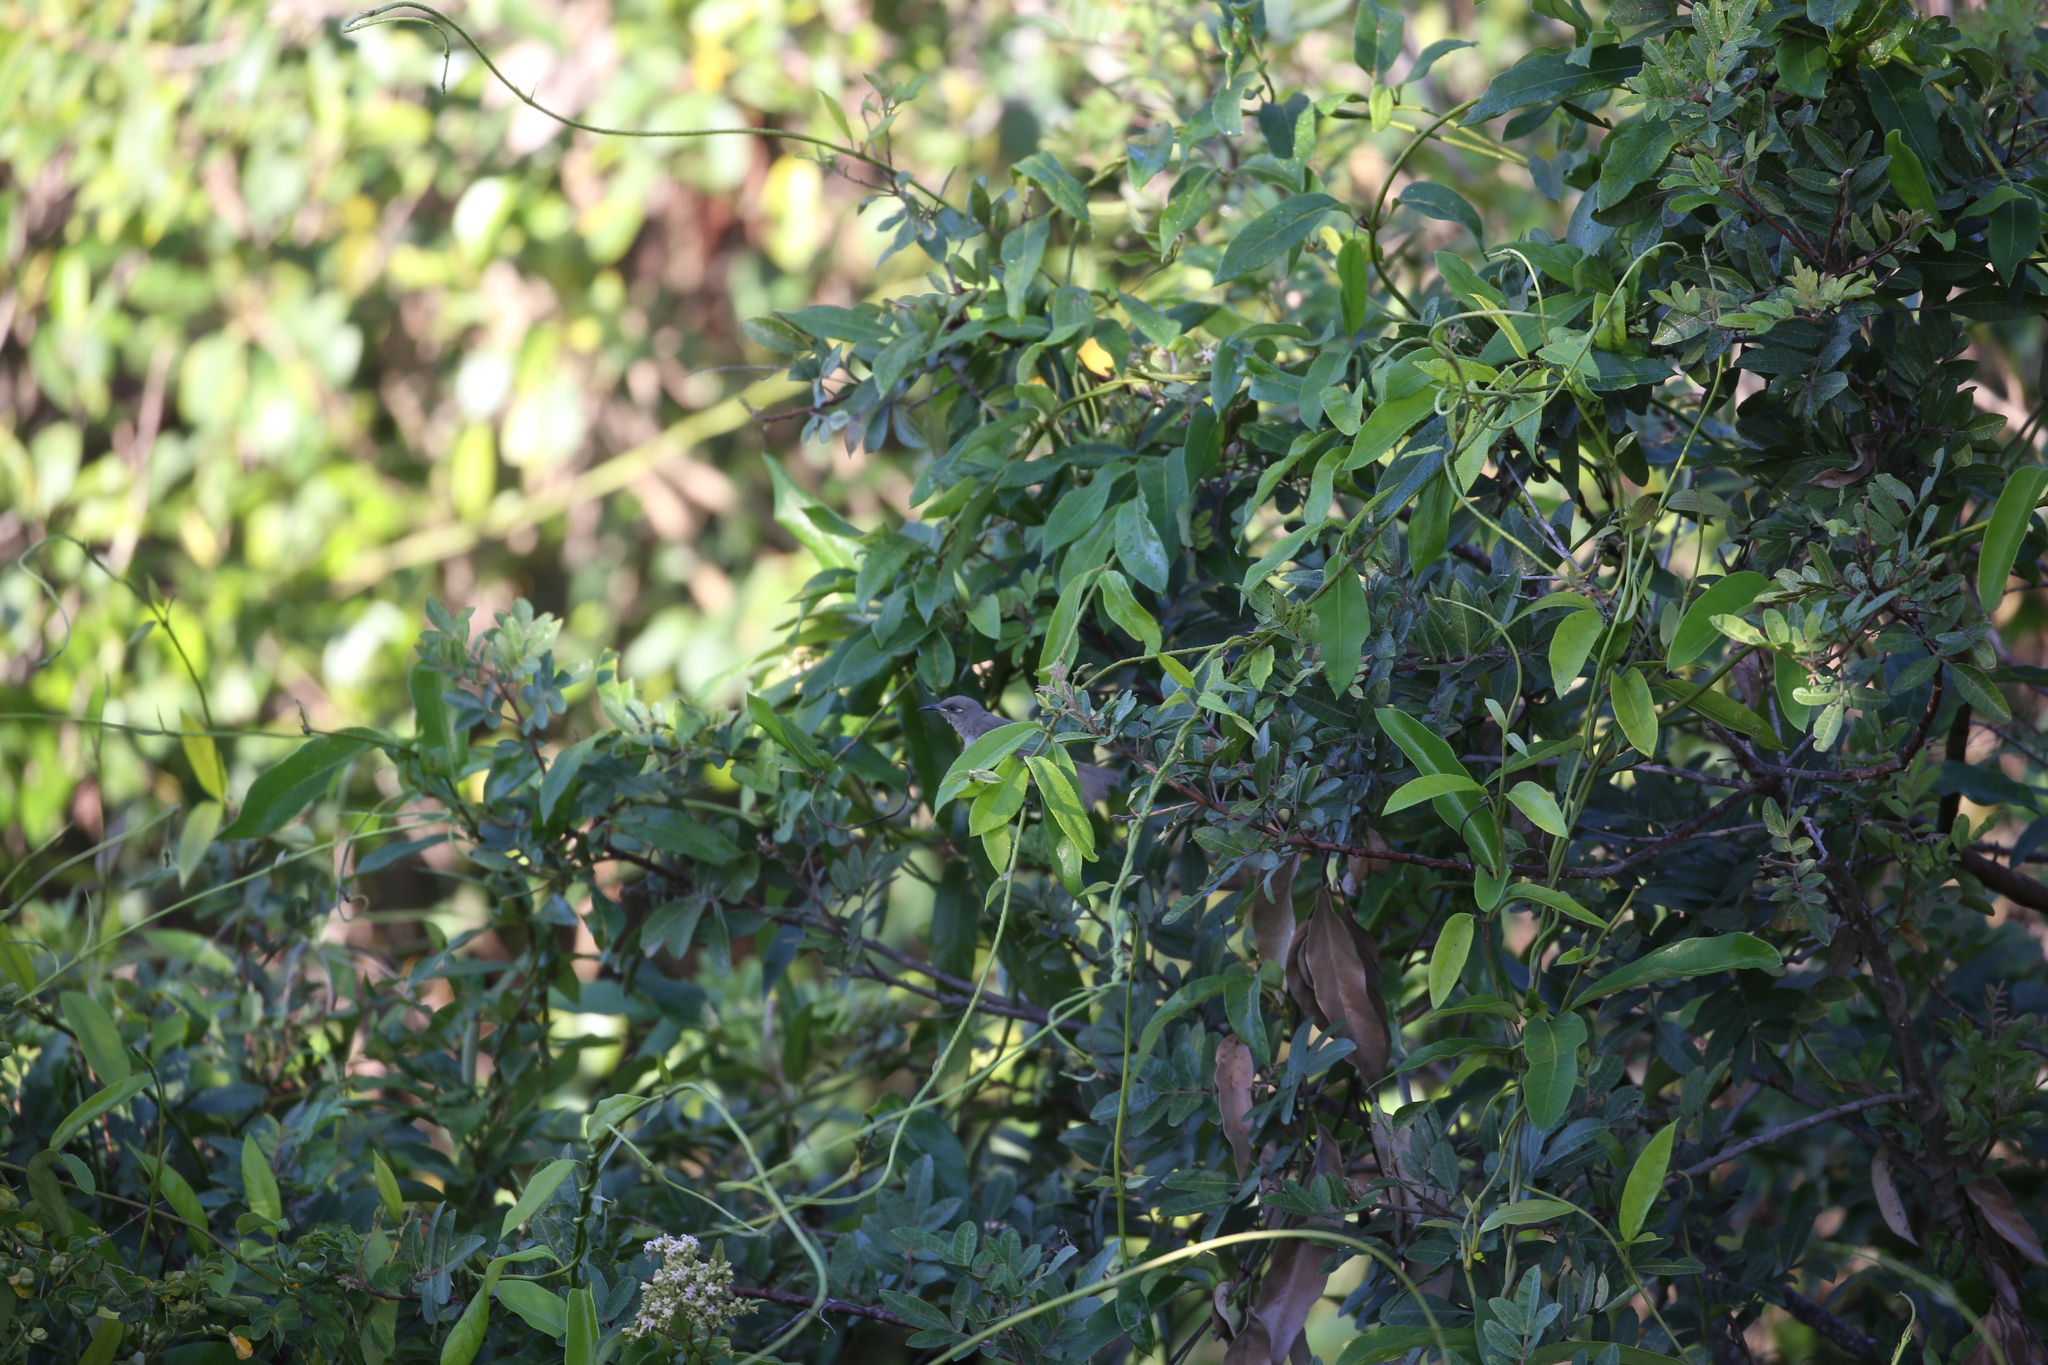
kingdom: Animalia
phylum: Chordata
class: Aves
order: Passeriformes
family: Meliphagidae
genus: Lichmera
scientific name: Lichmera indistincta
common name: Brown honeyeater
